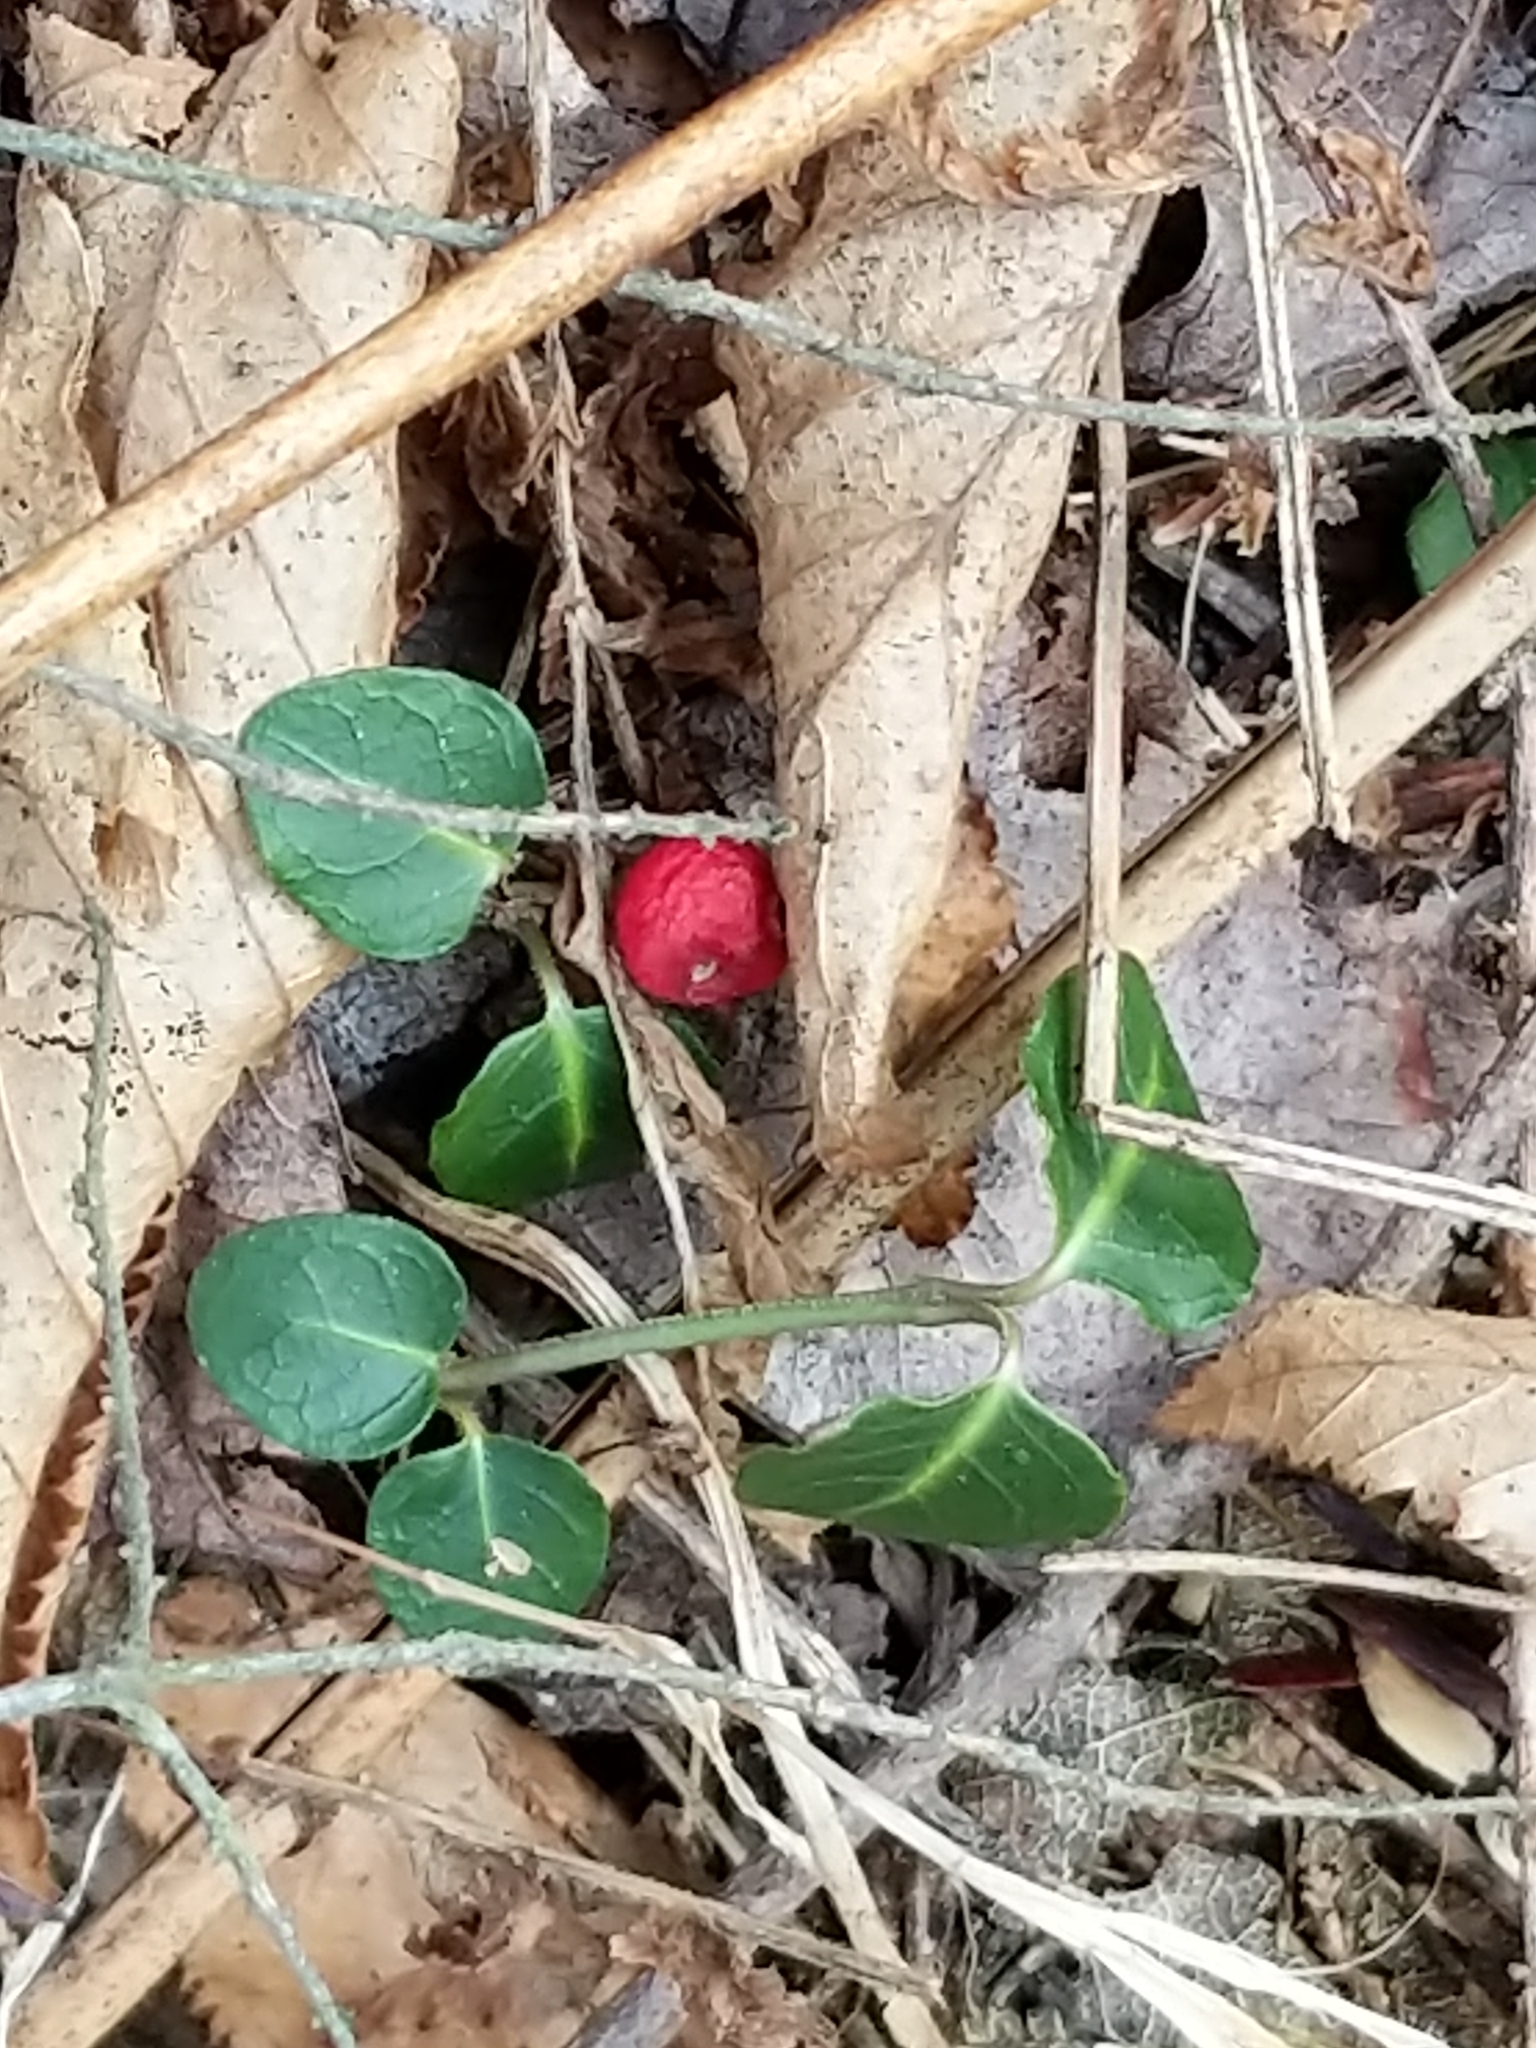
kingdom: Plantae
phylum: Tracheophyta
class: Magnoliopsida
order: Gentianales
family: Rubiaceae
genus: Mitchella
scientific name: Mitchella repens
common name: Partridge-berry
